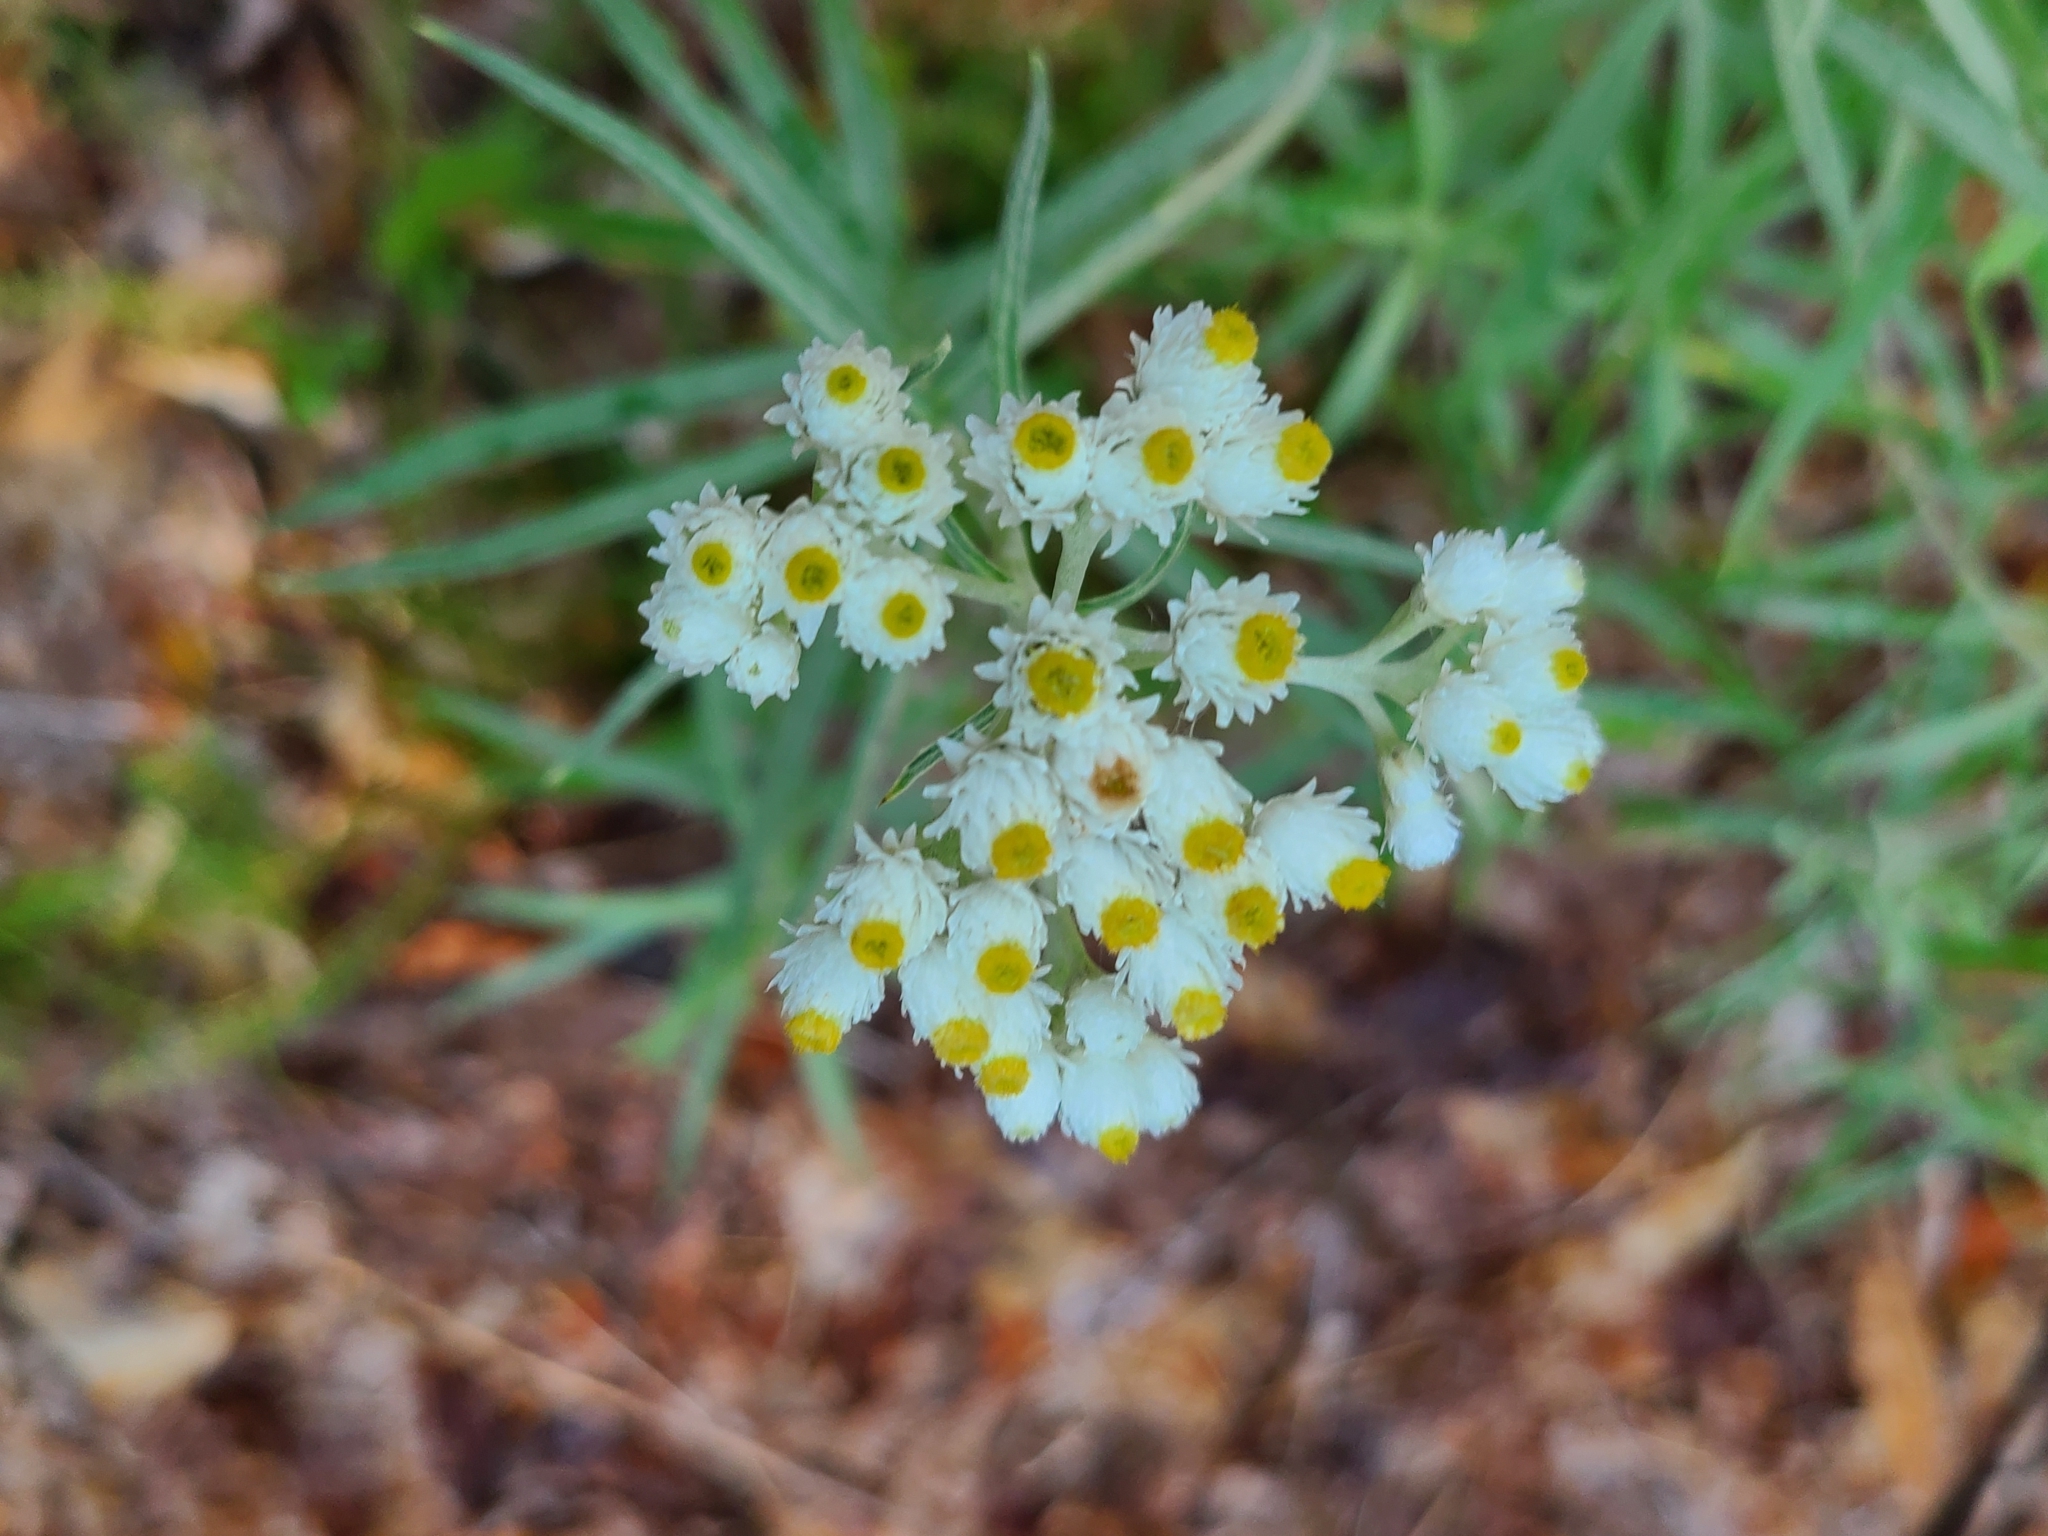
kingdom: Plantae
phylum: Tracheophyta
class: Magnoliopsida
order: Asterales
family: Asteraceae
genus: Anaphalis
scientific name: Anaphalis margaritacea
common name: Pearly everlasting
